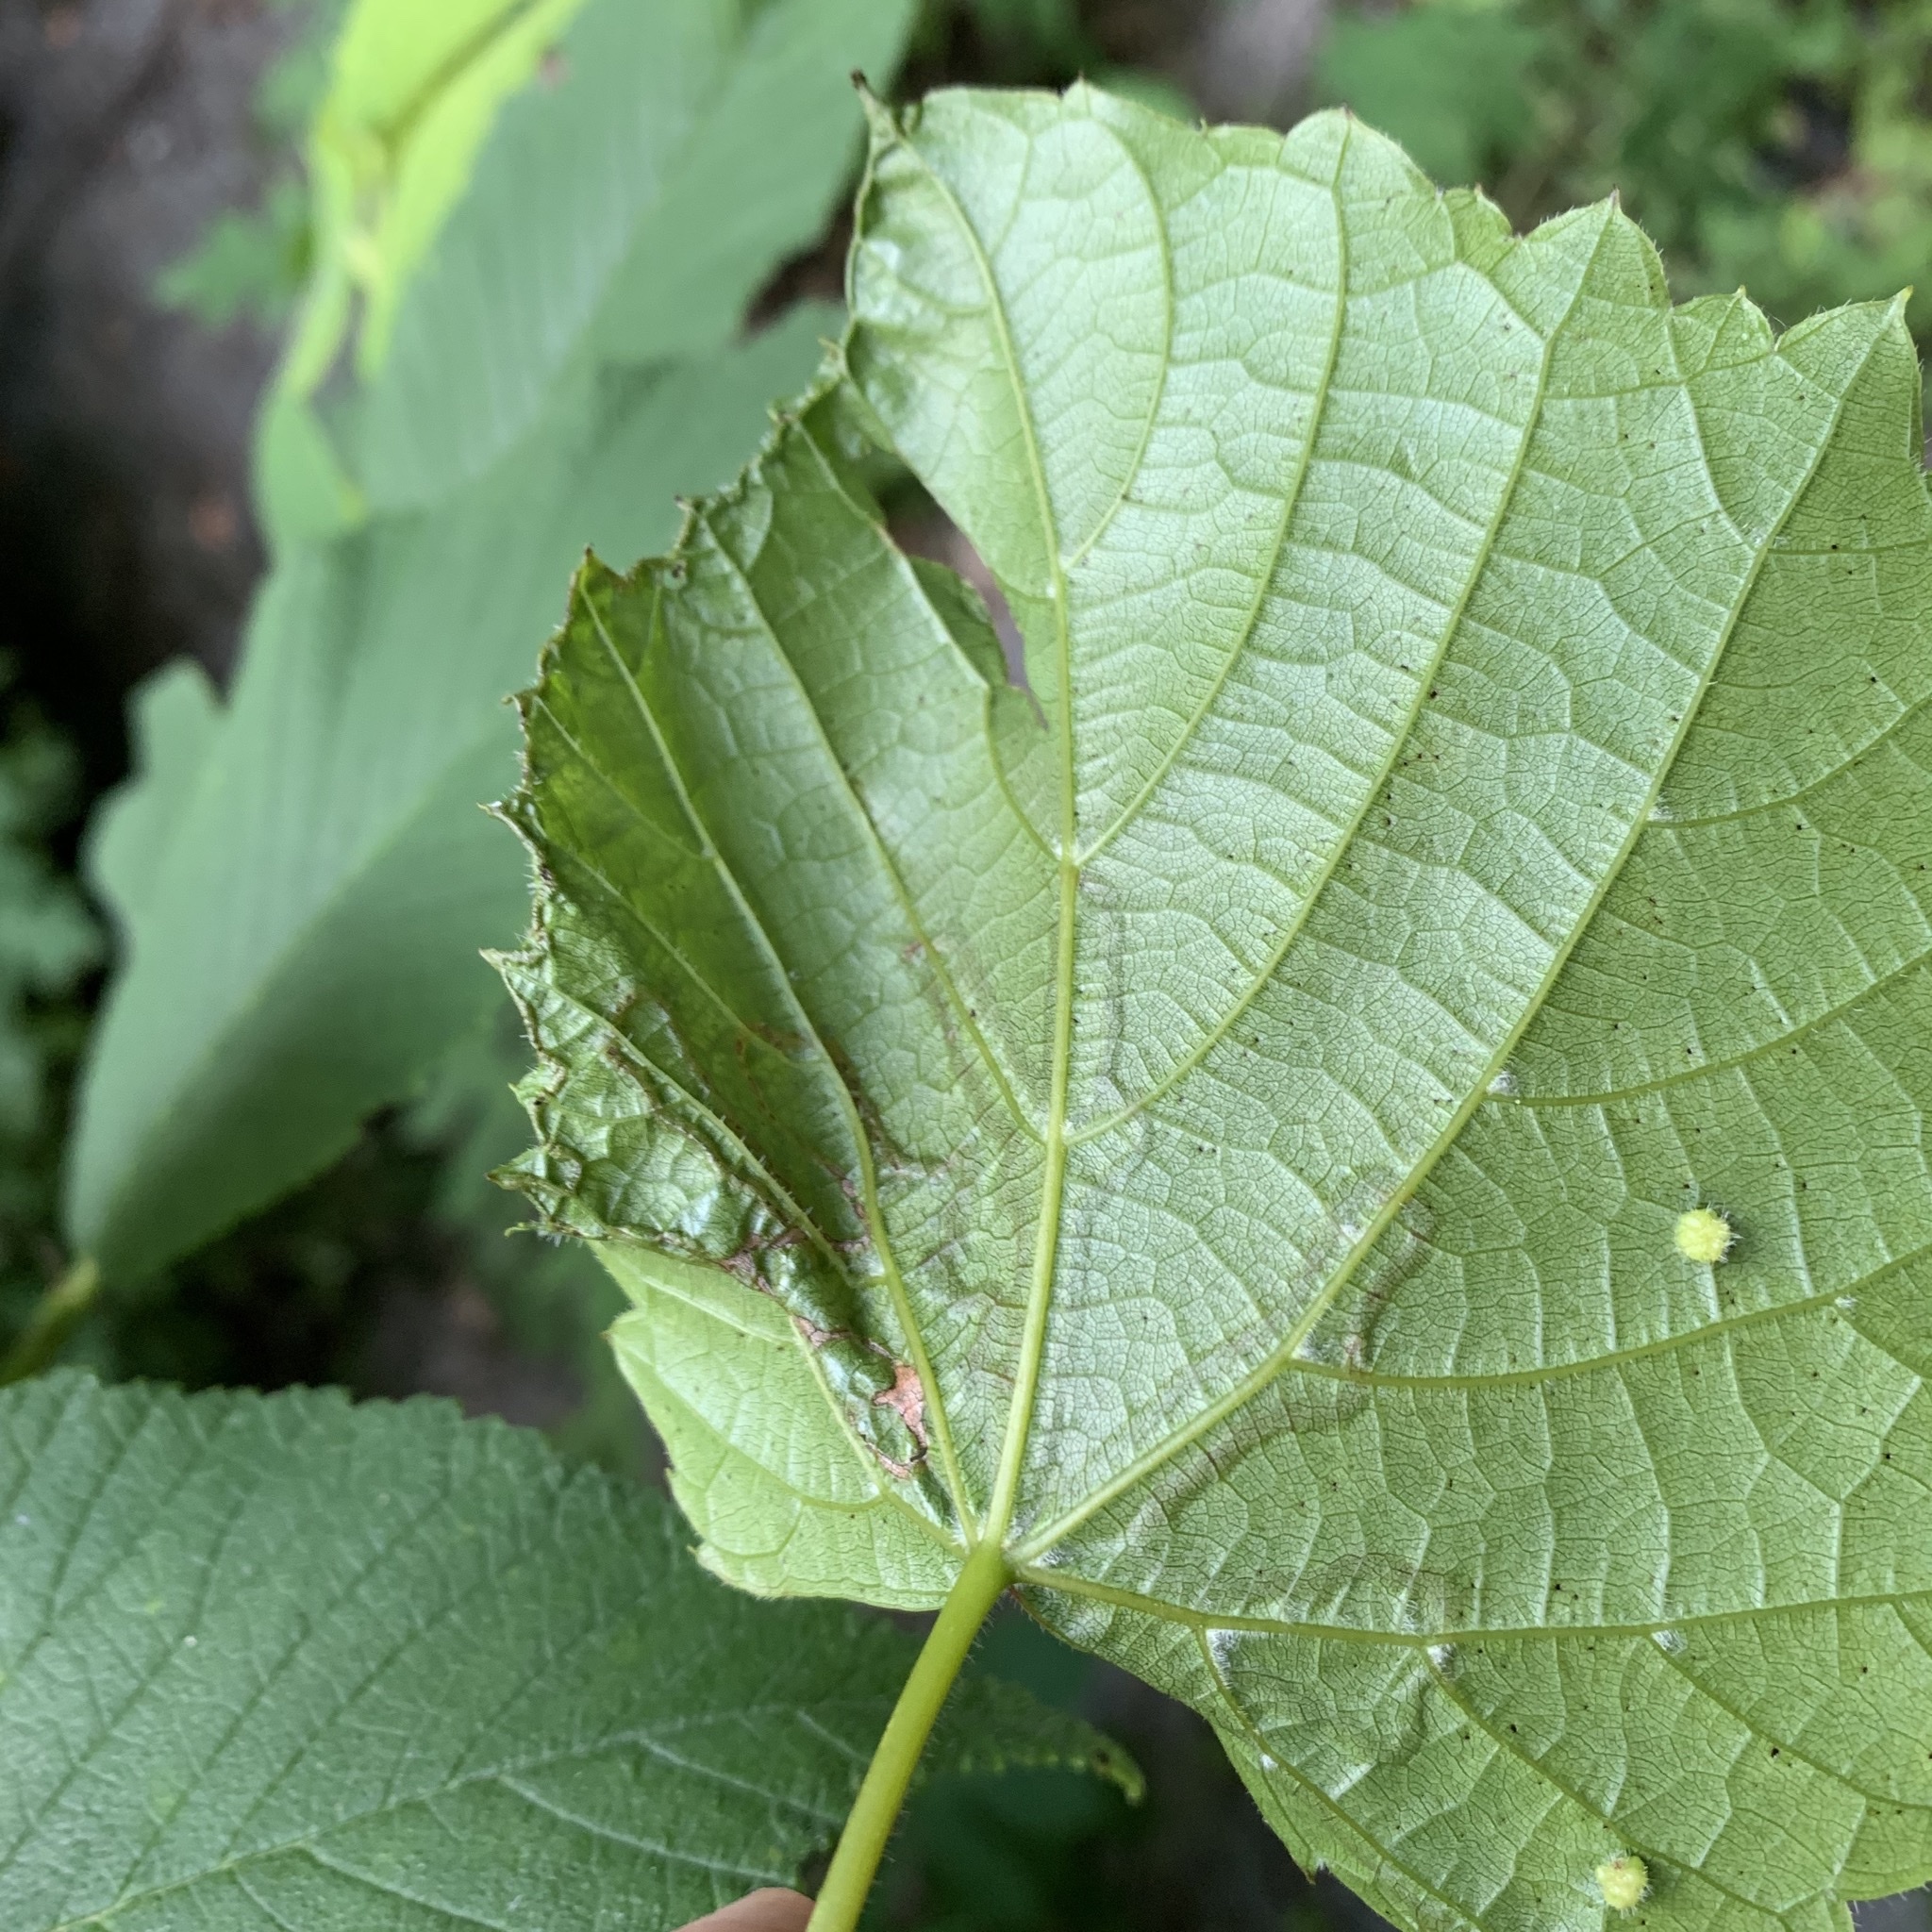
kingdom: Animalia
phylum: Arthropoda
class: Insecta
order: Lepidoptera
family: Gracillariidae
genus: Phyllocnistis
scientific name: Phyllocnistis vitegenella
